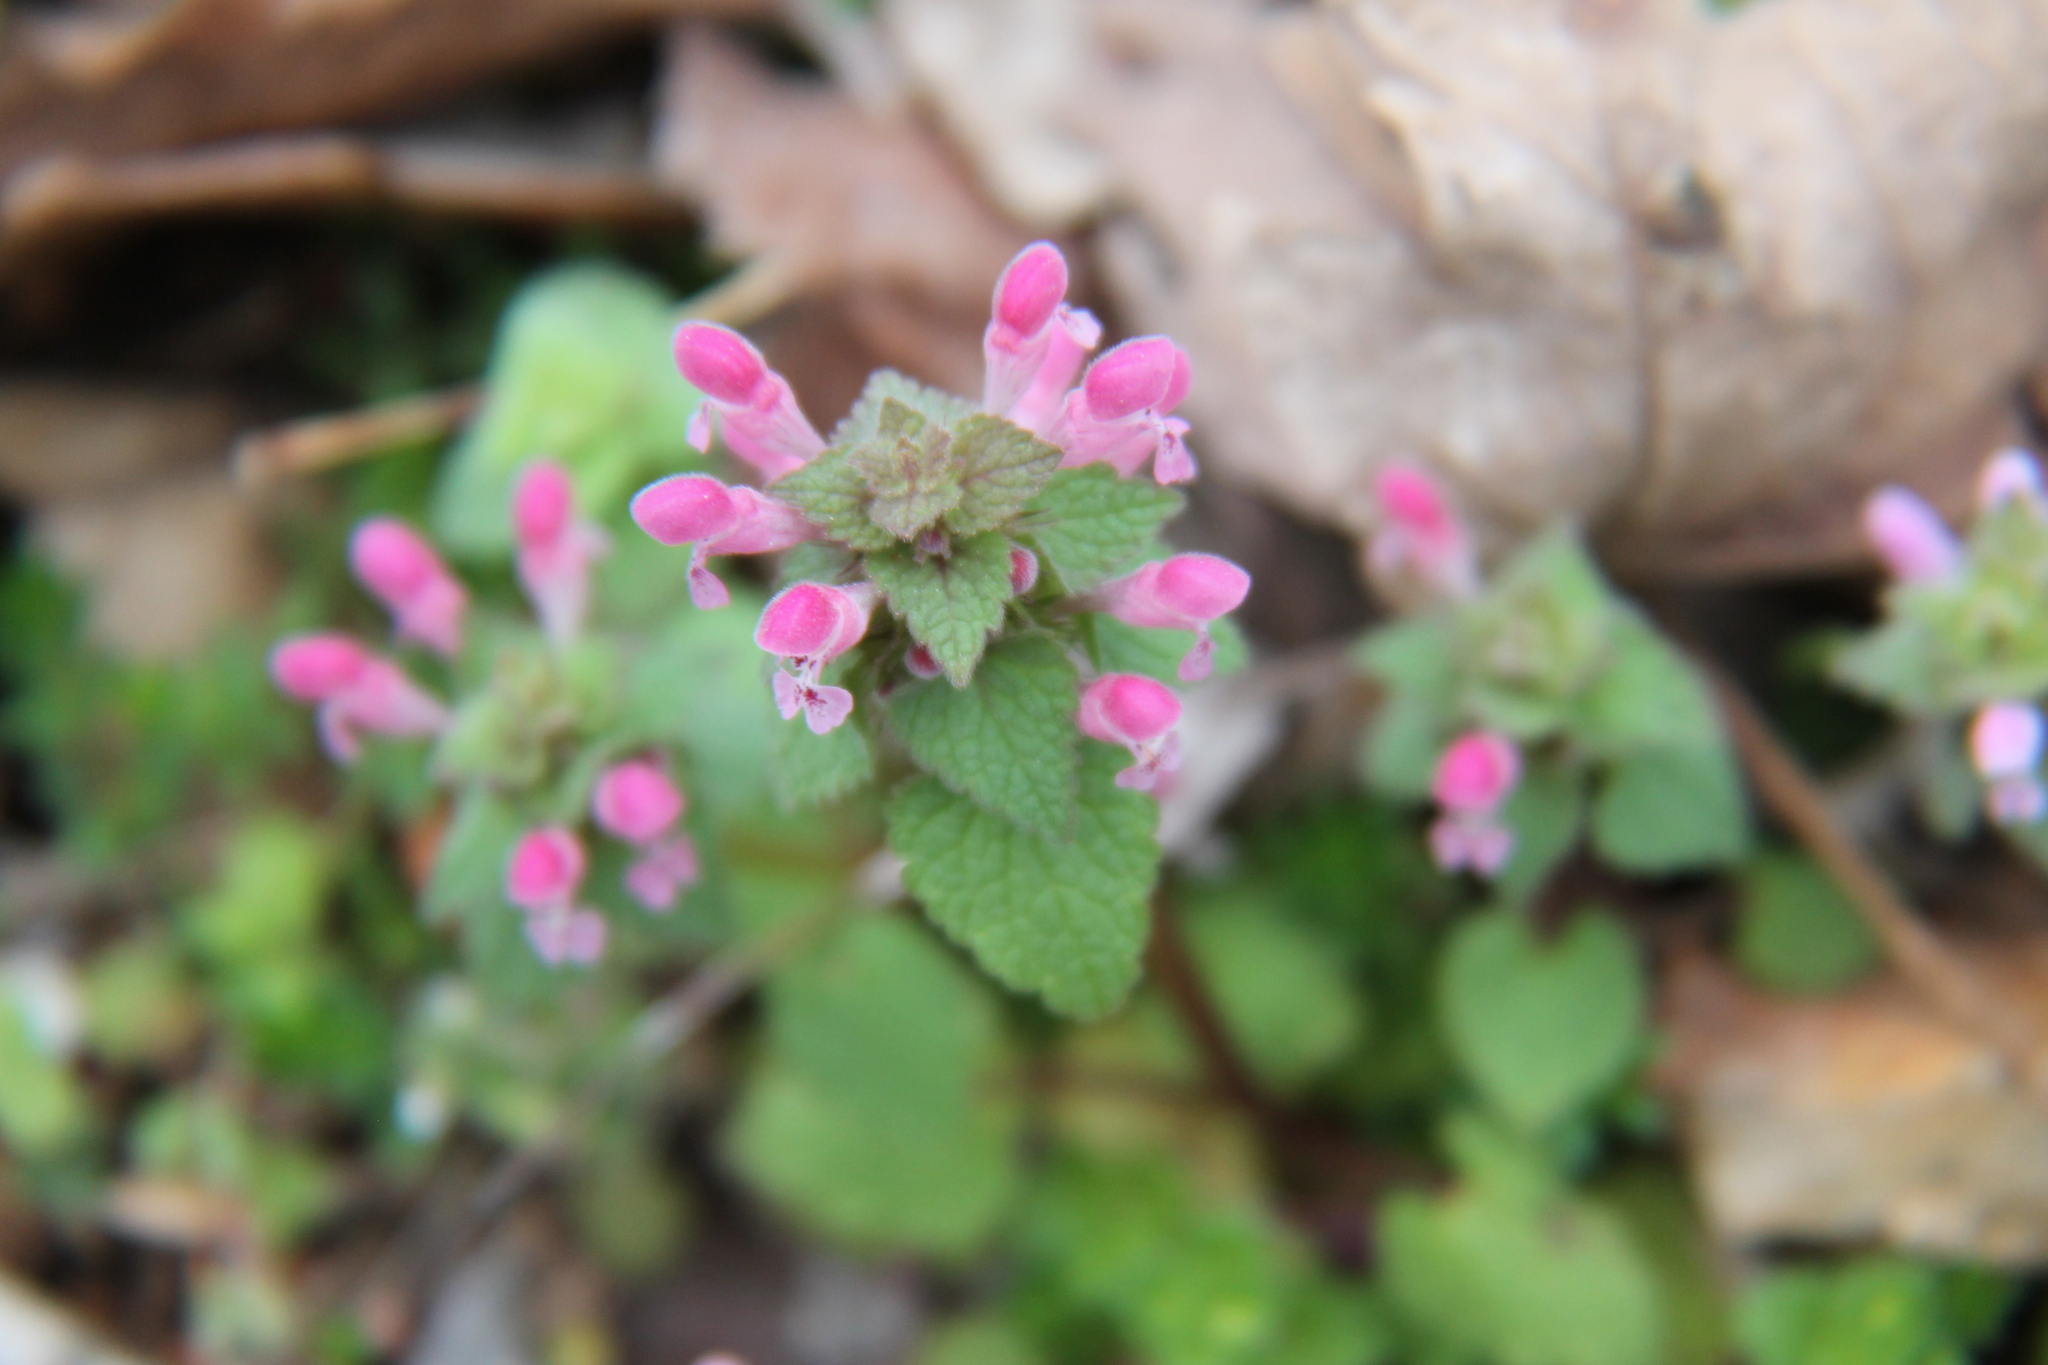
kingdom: Plantae
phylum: Tracheophyta
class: Magnoliopsida
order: Lamiales
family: Lamiaceae
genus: Lamium
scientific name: Lamium purpureum
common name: Red dead-nettle
